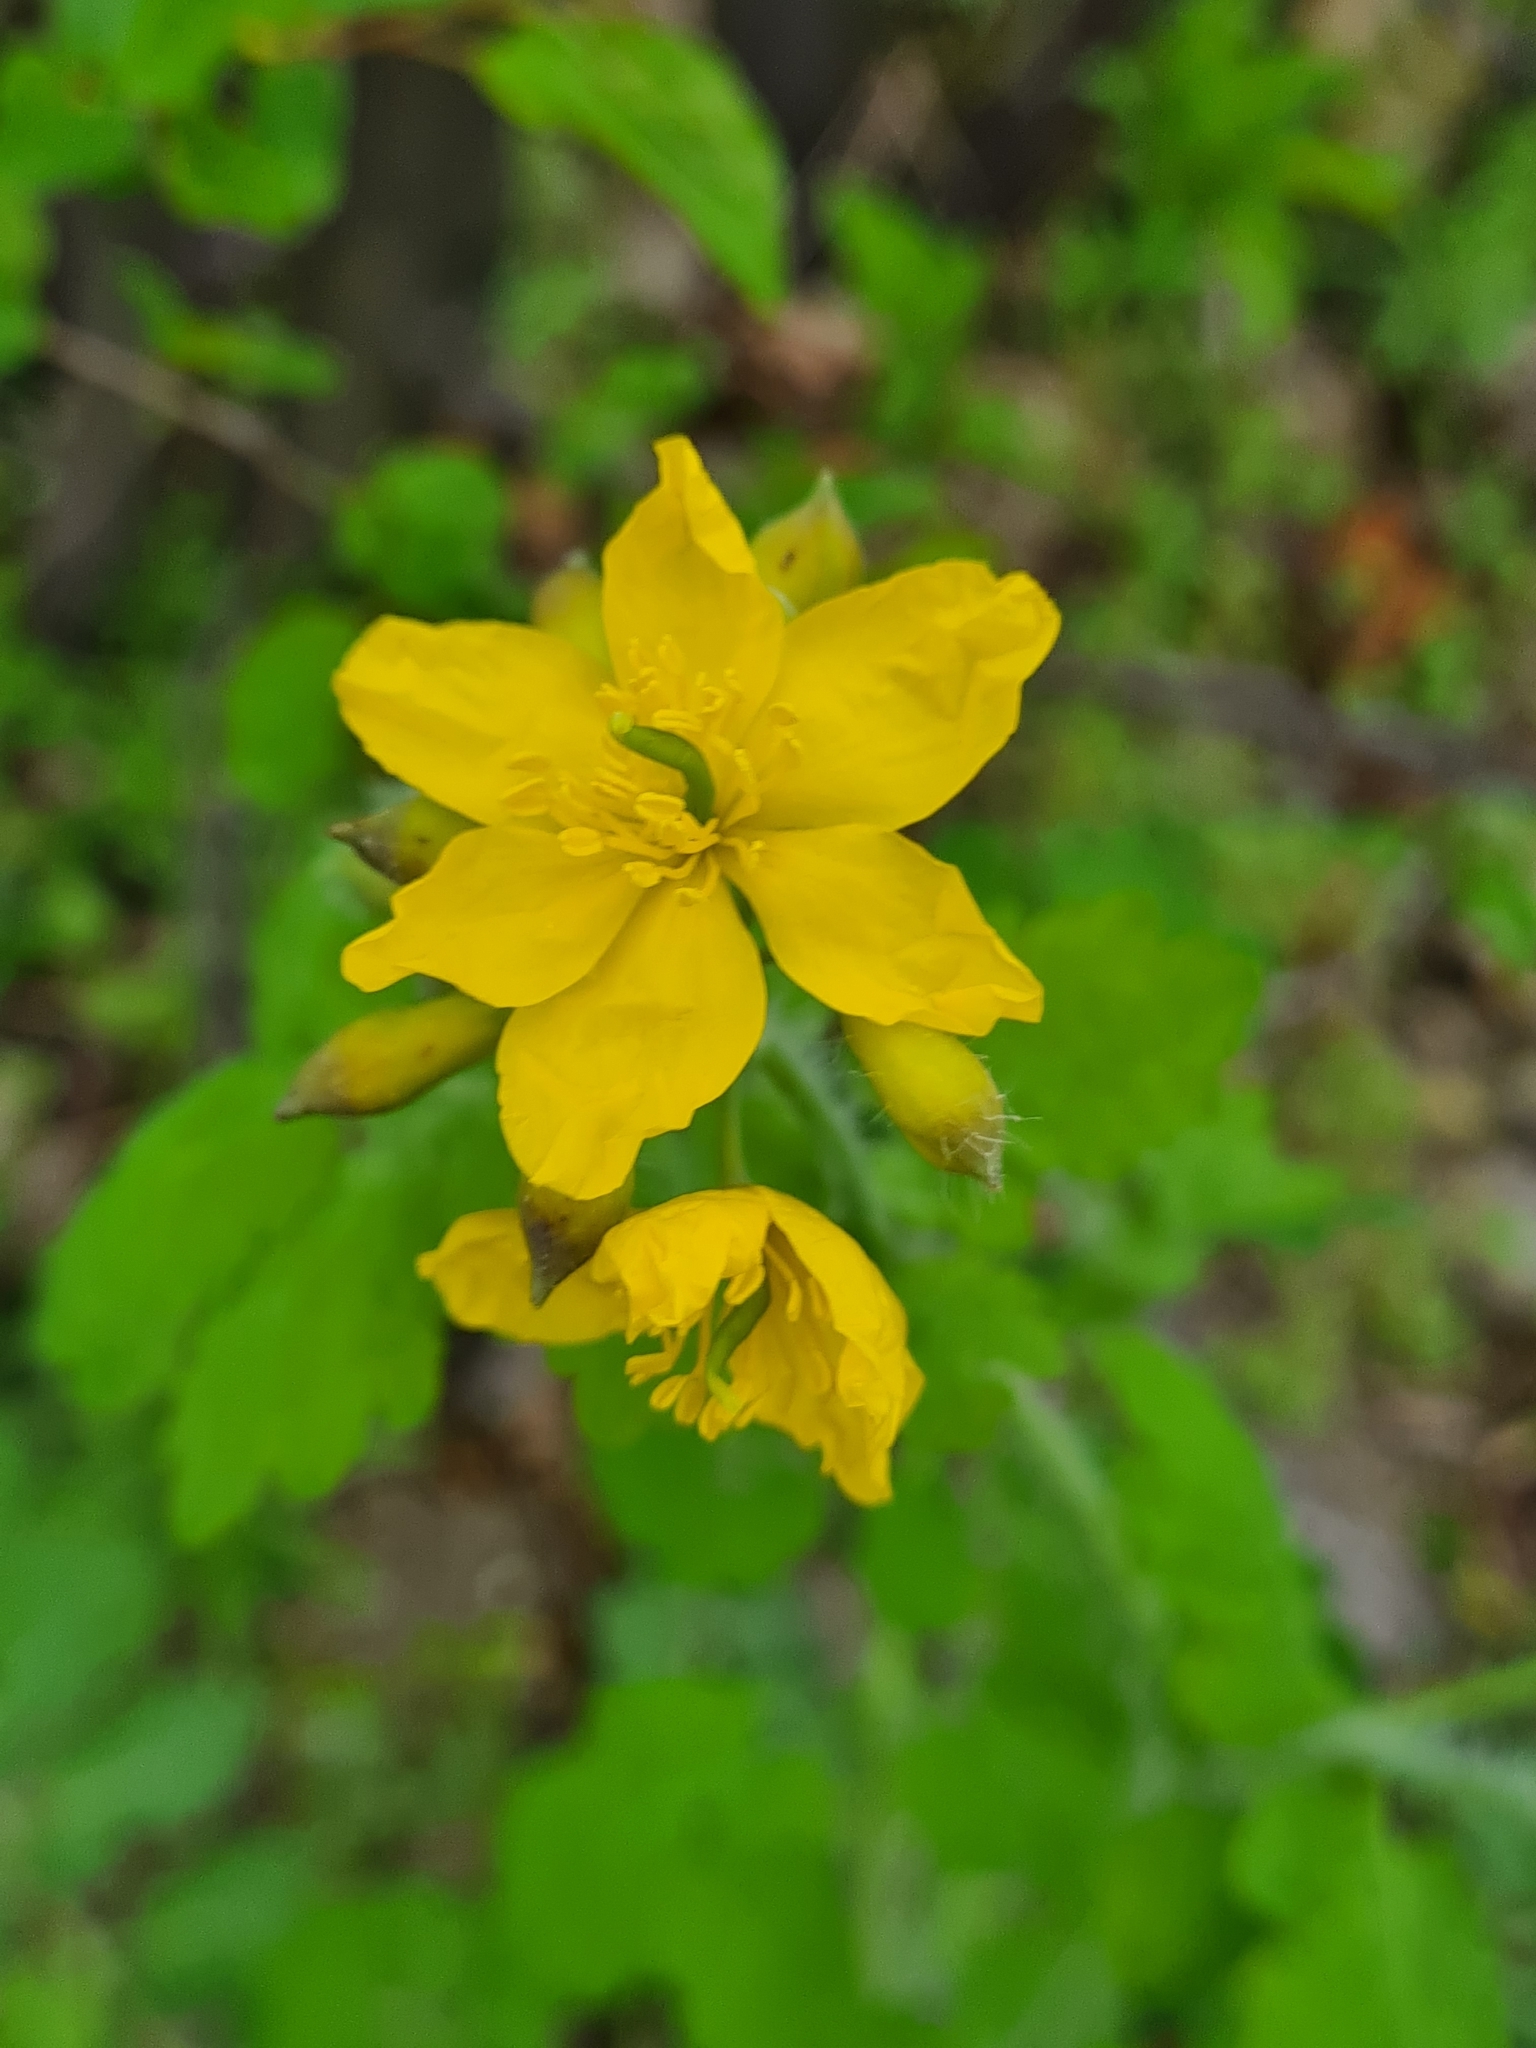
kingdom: Plantae
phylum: Tracheophyta
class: Magnoliopsida
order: Ranunculales
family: Papaveraceae
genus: Chelidonium
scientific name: Chelidonium majus
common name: Greater celandine
